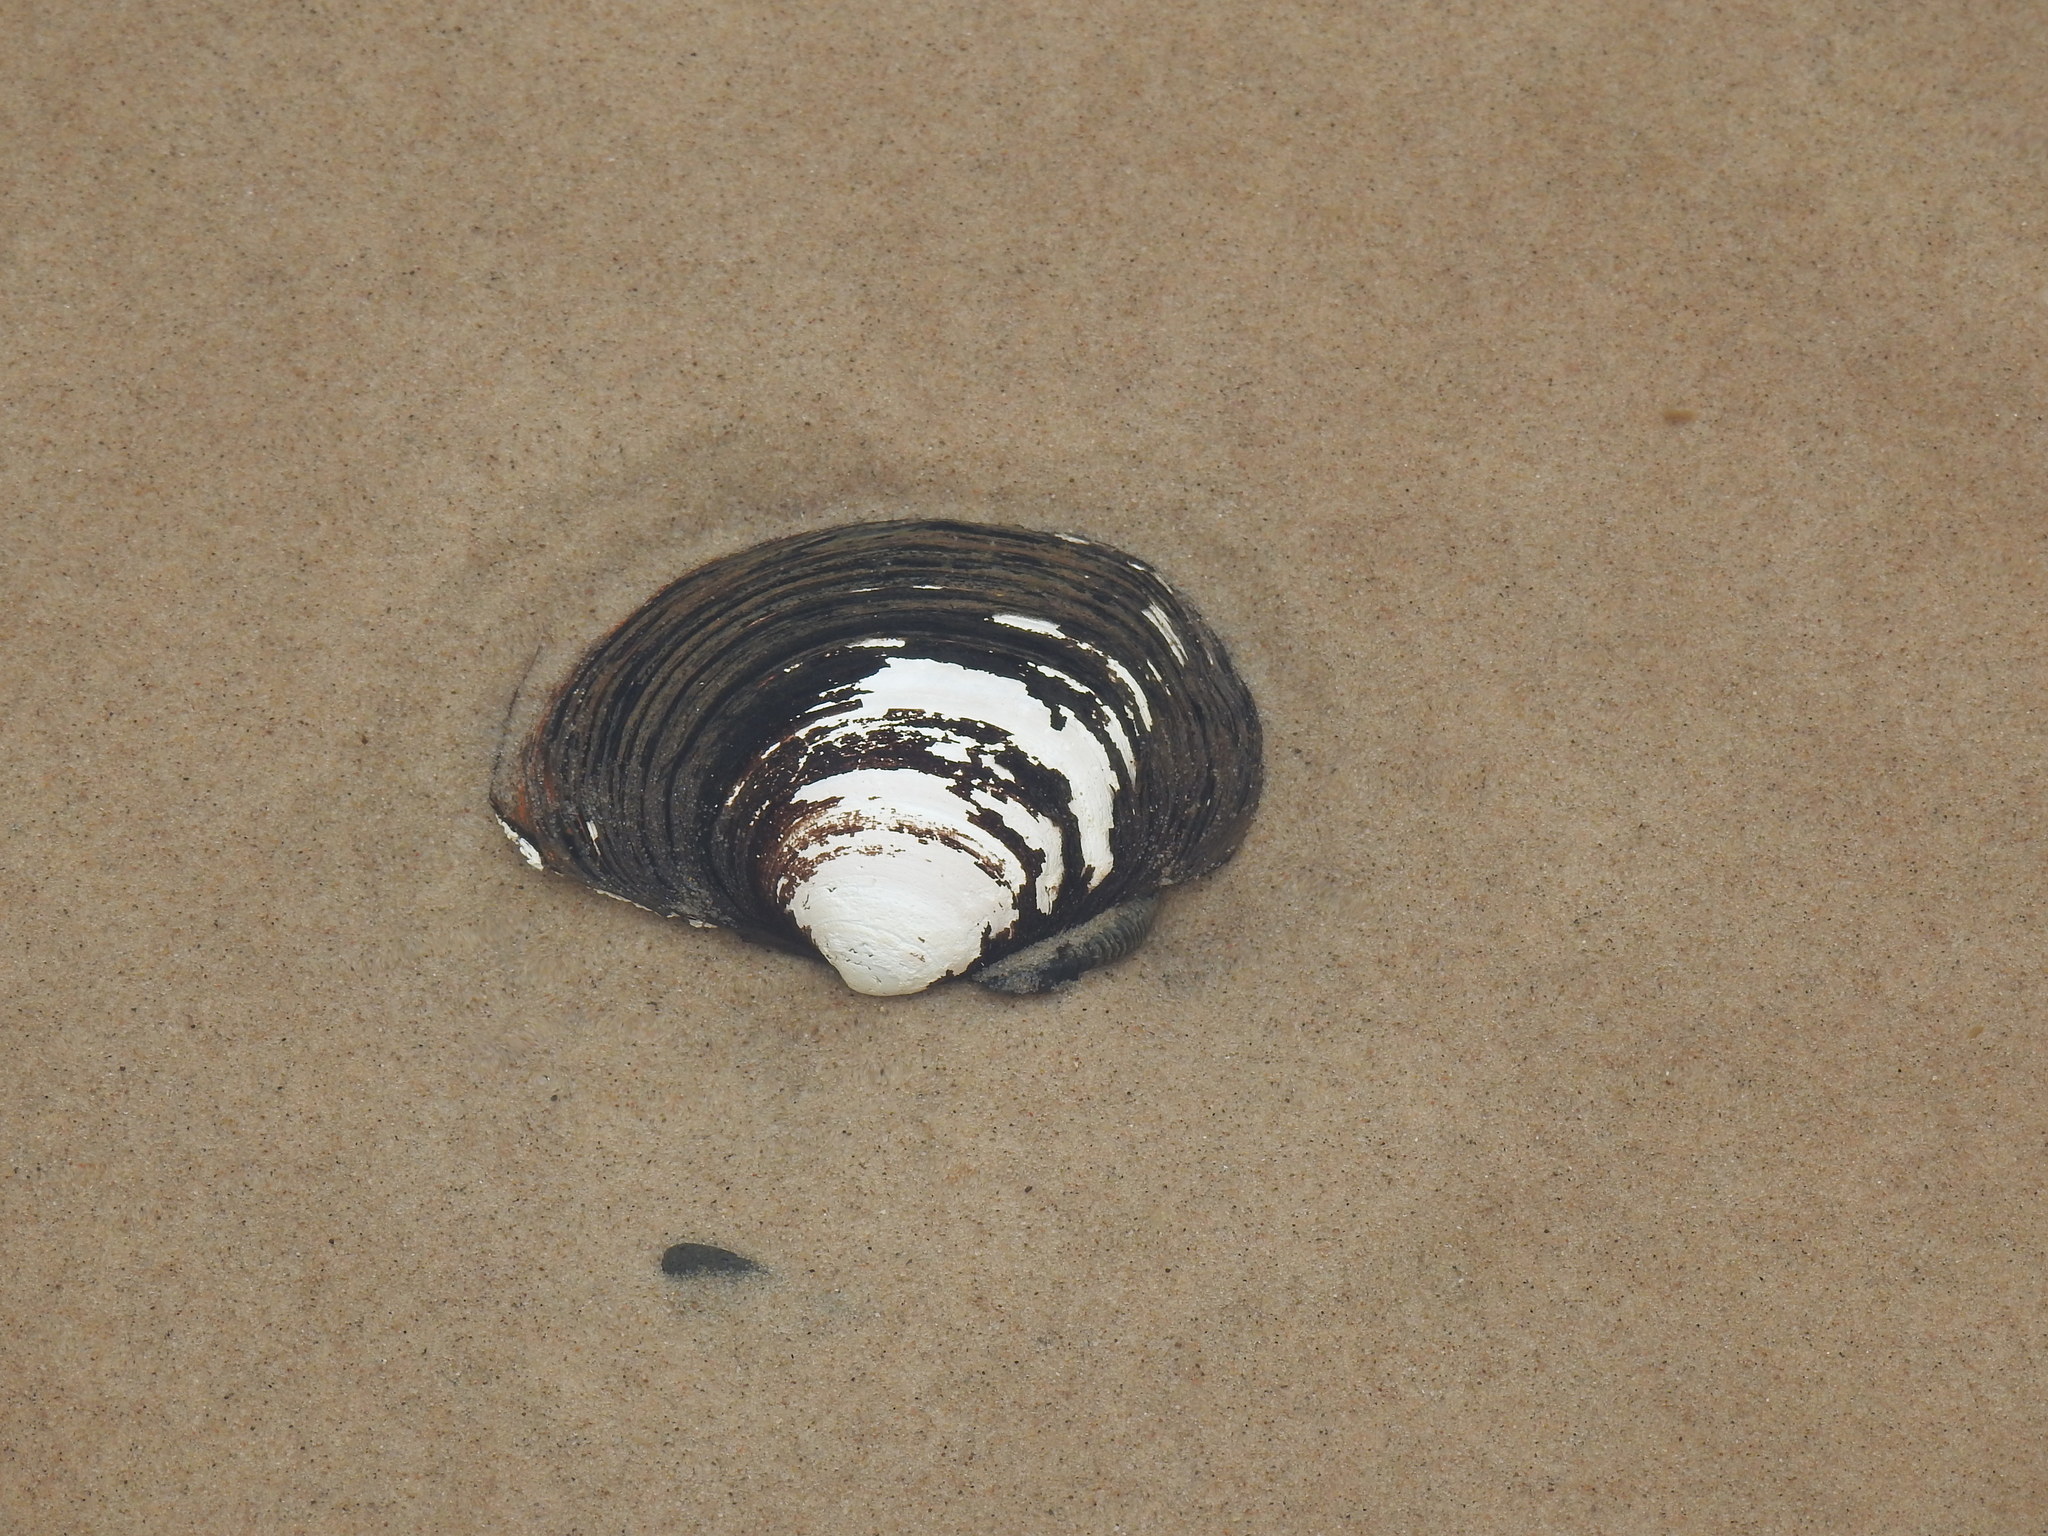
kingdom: Animalia
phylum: Mollusca
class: Bivalvia
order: Venerida
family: Arcticidae
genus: Arctica
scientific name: Arctica islandica
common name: Icelandic cyprine
